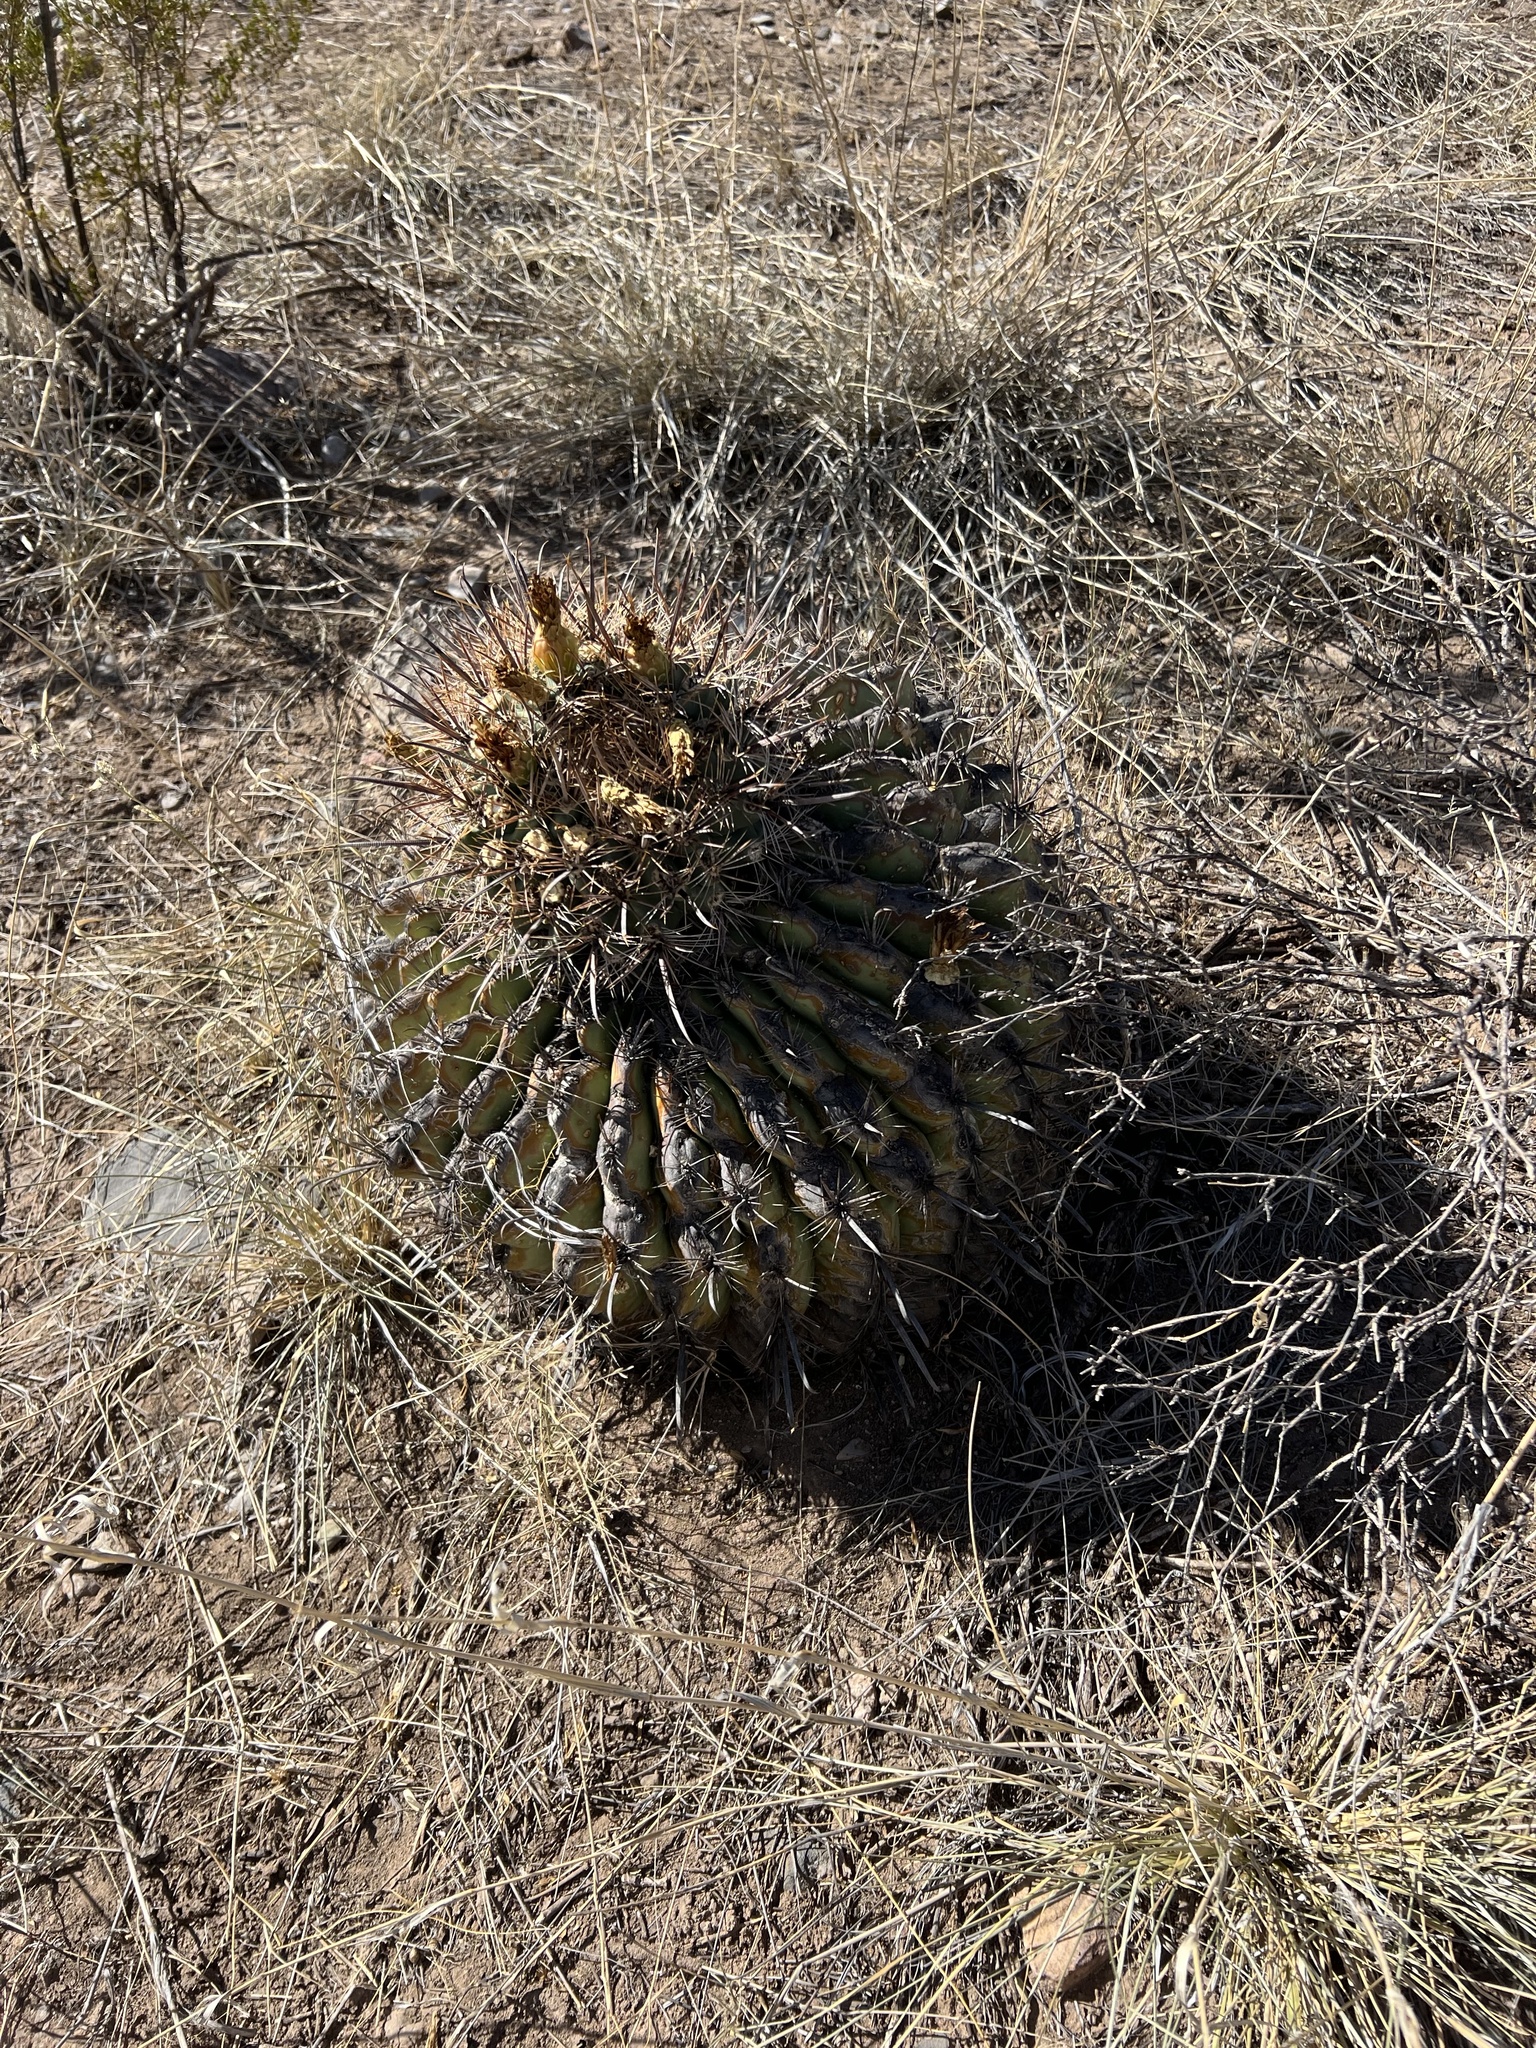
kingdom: Plantae
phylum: Tracheophyta
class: Magnoliopsida
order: Caryophyllales
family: Cactaceae
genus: Ferocactus
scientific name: Ferocactus wislizeni
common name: Candy barrel cactus
